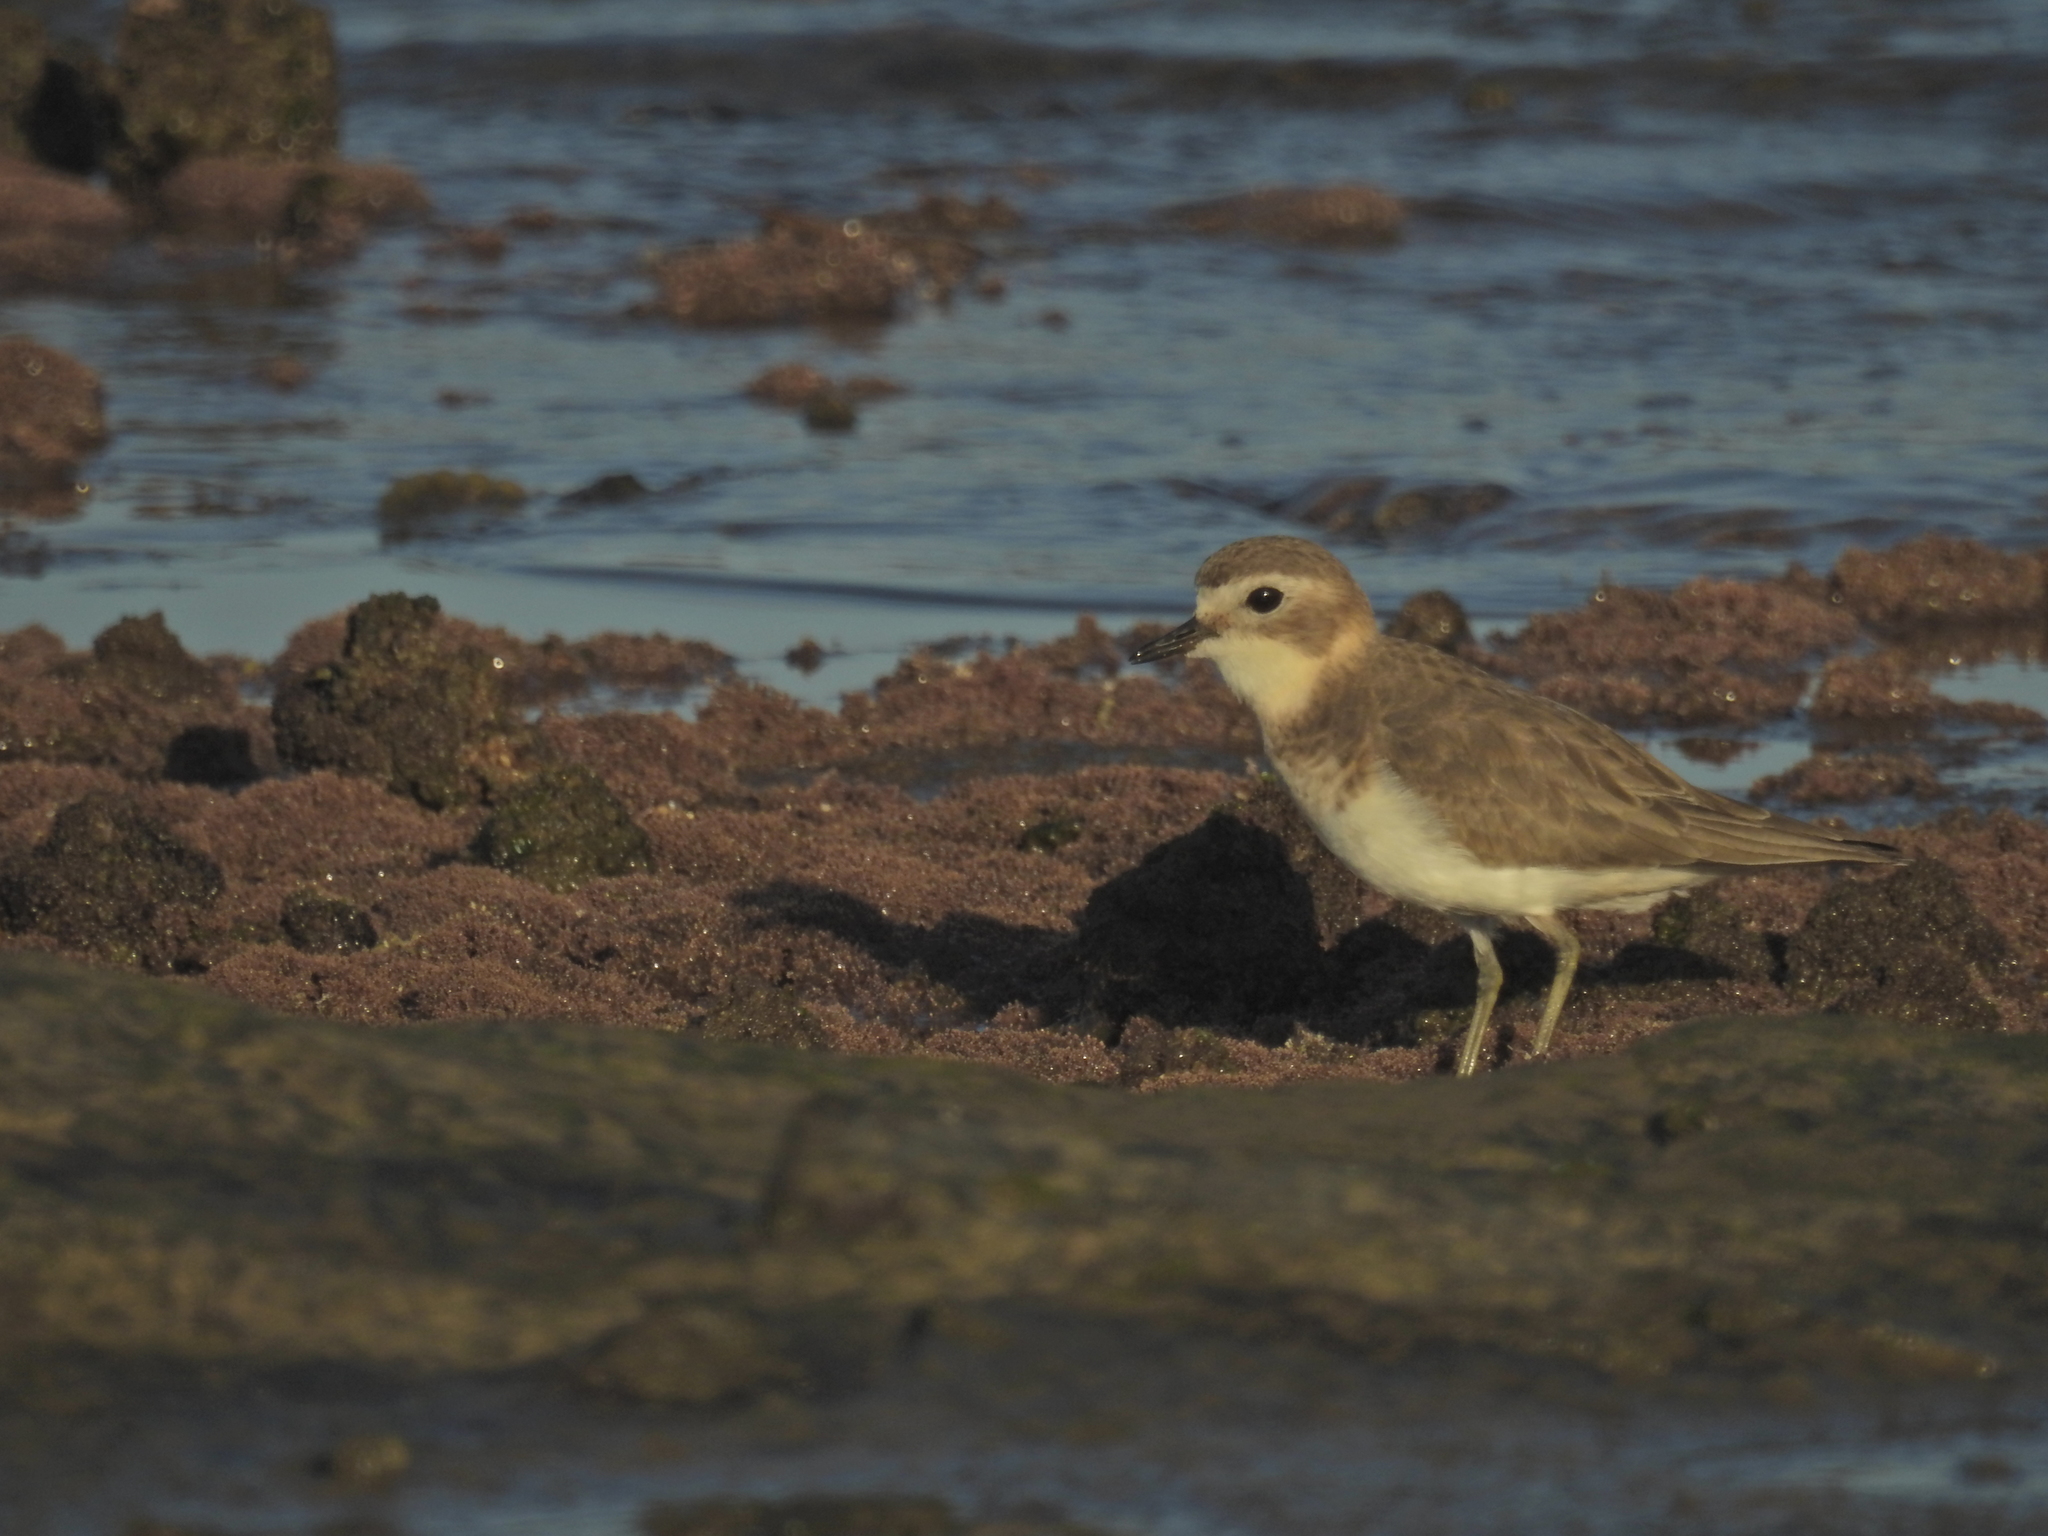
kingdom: Animalia
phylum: Chordata
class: Aves
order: Charadriiformes
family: Charadriidae
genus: Anarhynchus
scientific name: Anarhynchus
